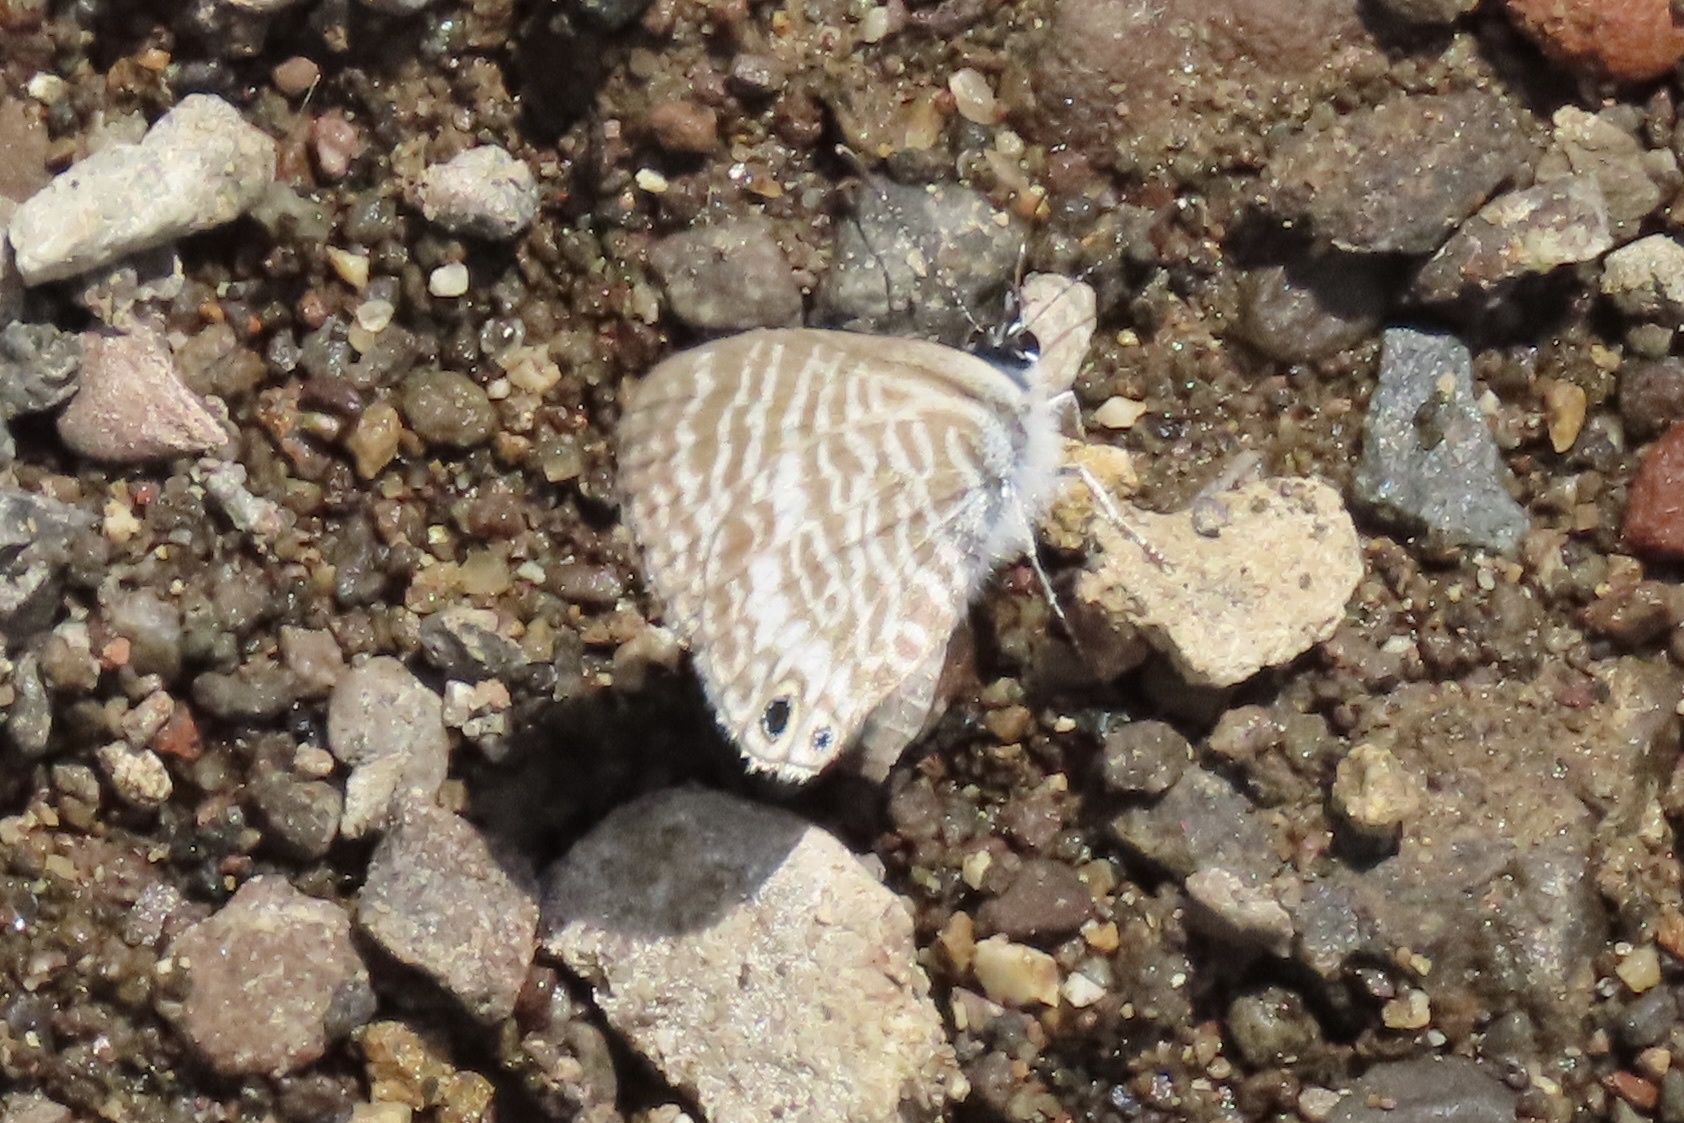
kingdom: Animalia
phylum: Arthropoda
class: Insecta
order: Lepidoptera
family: Lycaenidae
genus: Leptotes
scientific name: Leptotes marina
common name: Marine blue
